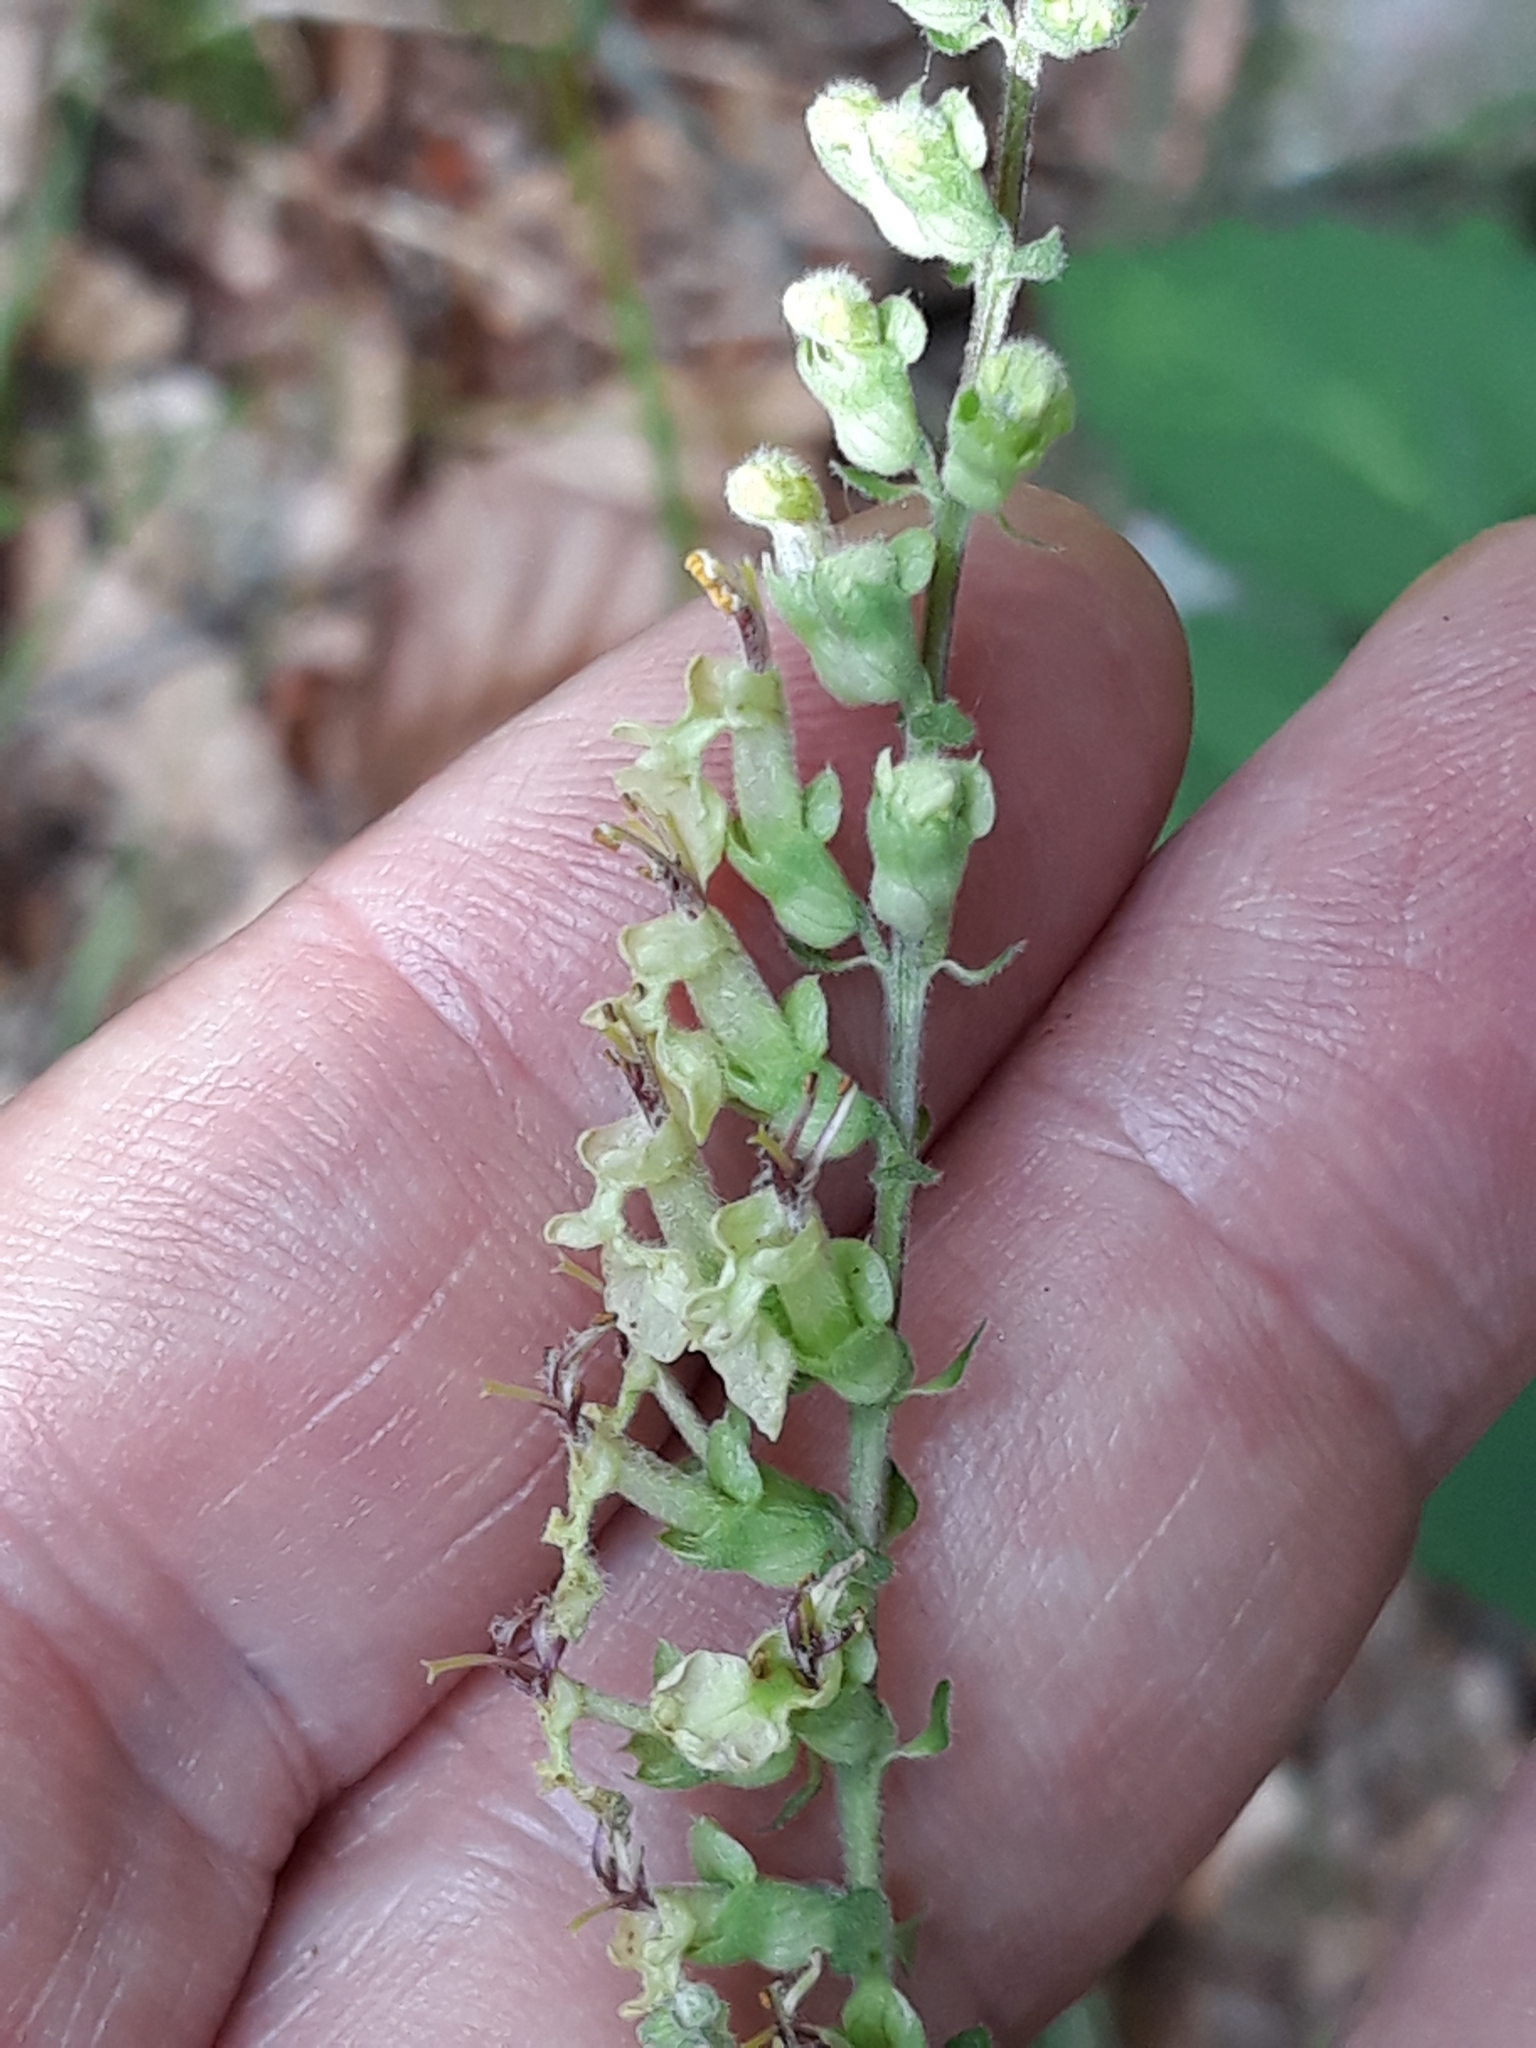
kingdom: Plantae
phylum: Tracheophyta
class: Magnoliopsida
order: Lamiales
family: Lamiaceae
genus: Teucrium
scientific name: Teucrium scorodonia
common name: Woodland germander
